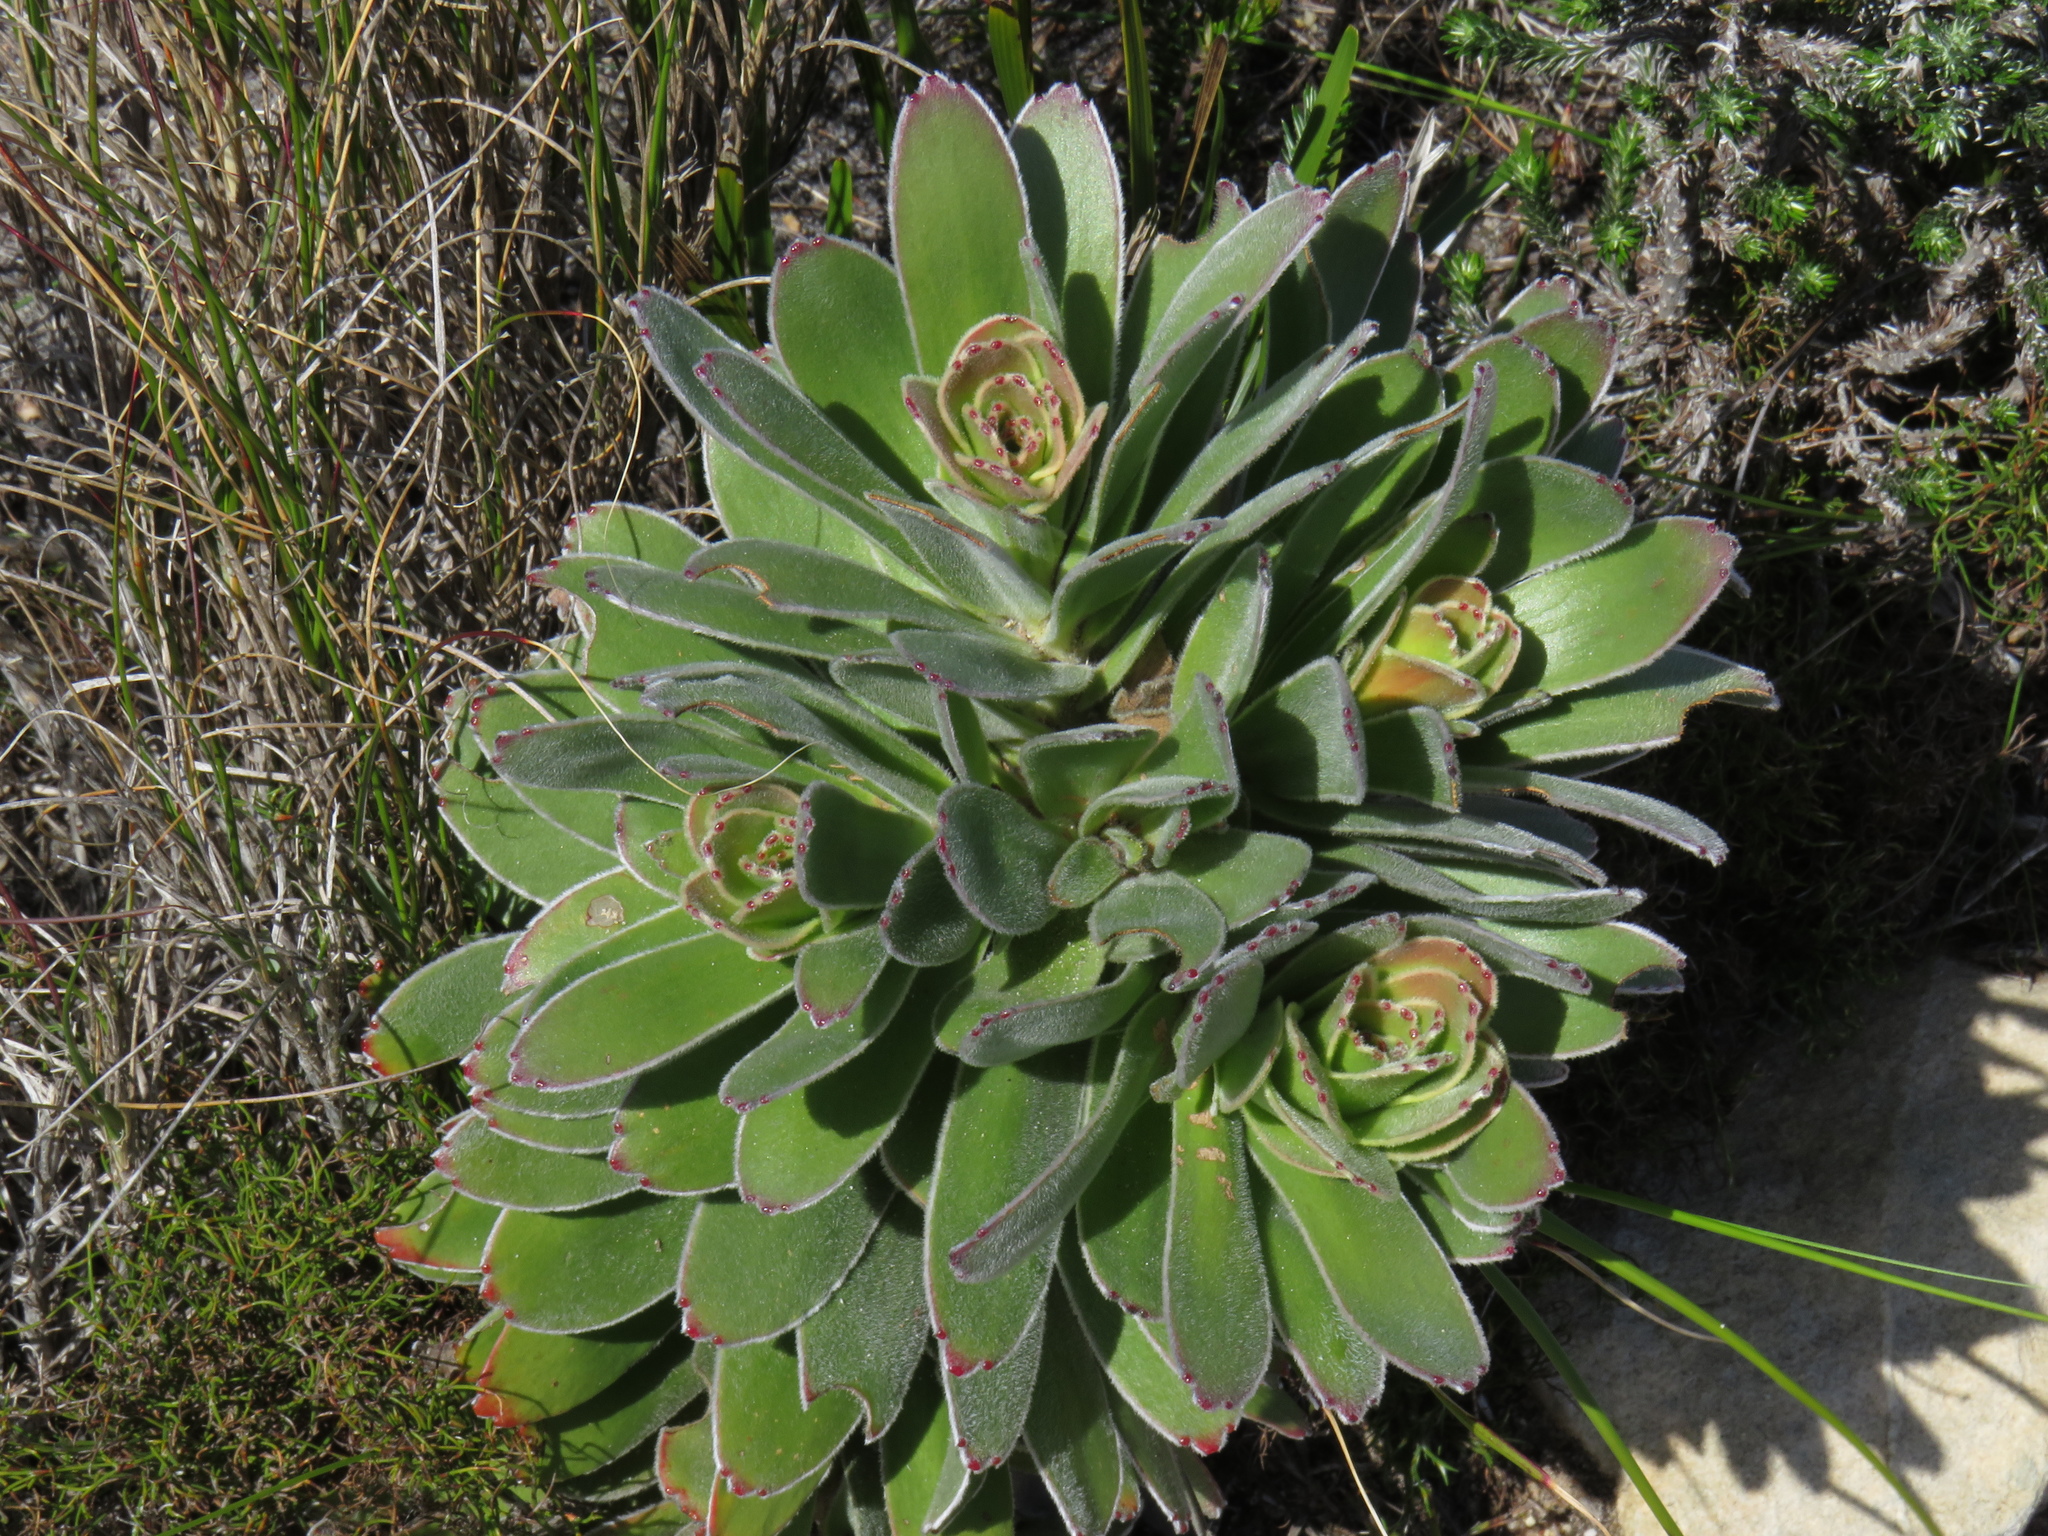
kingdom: Plantae
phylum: Tracheophyta
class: Magnoliopsida
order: Proteales
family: Proteaceae
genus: Mimetes
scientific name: Mimetes fimbriifolius
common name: Fringed bottlebrush
